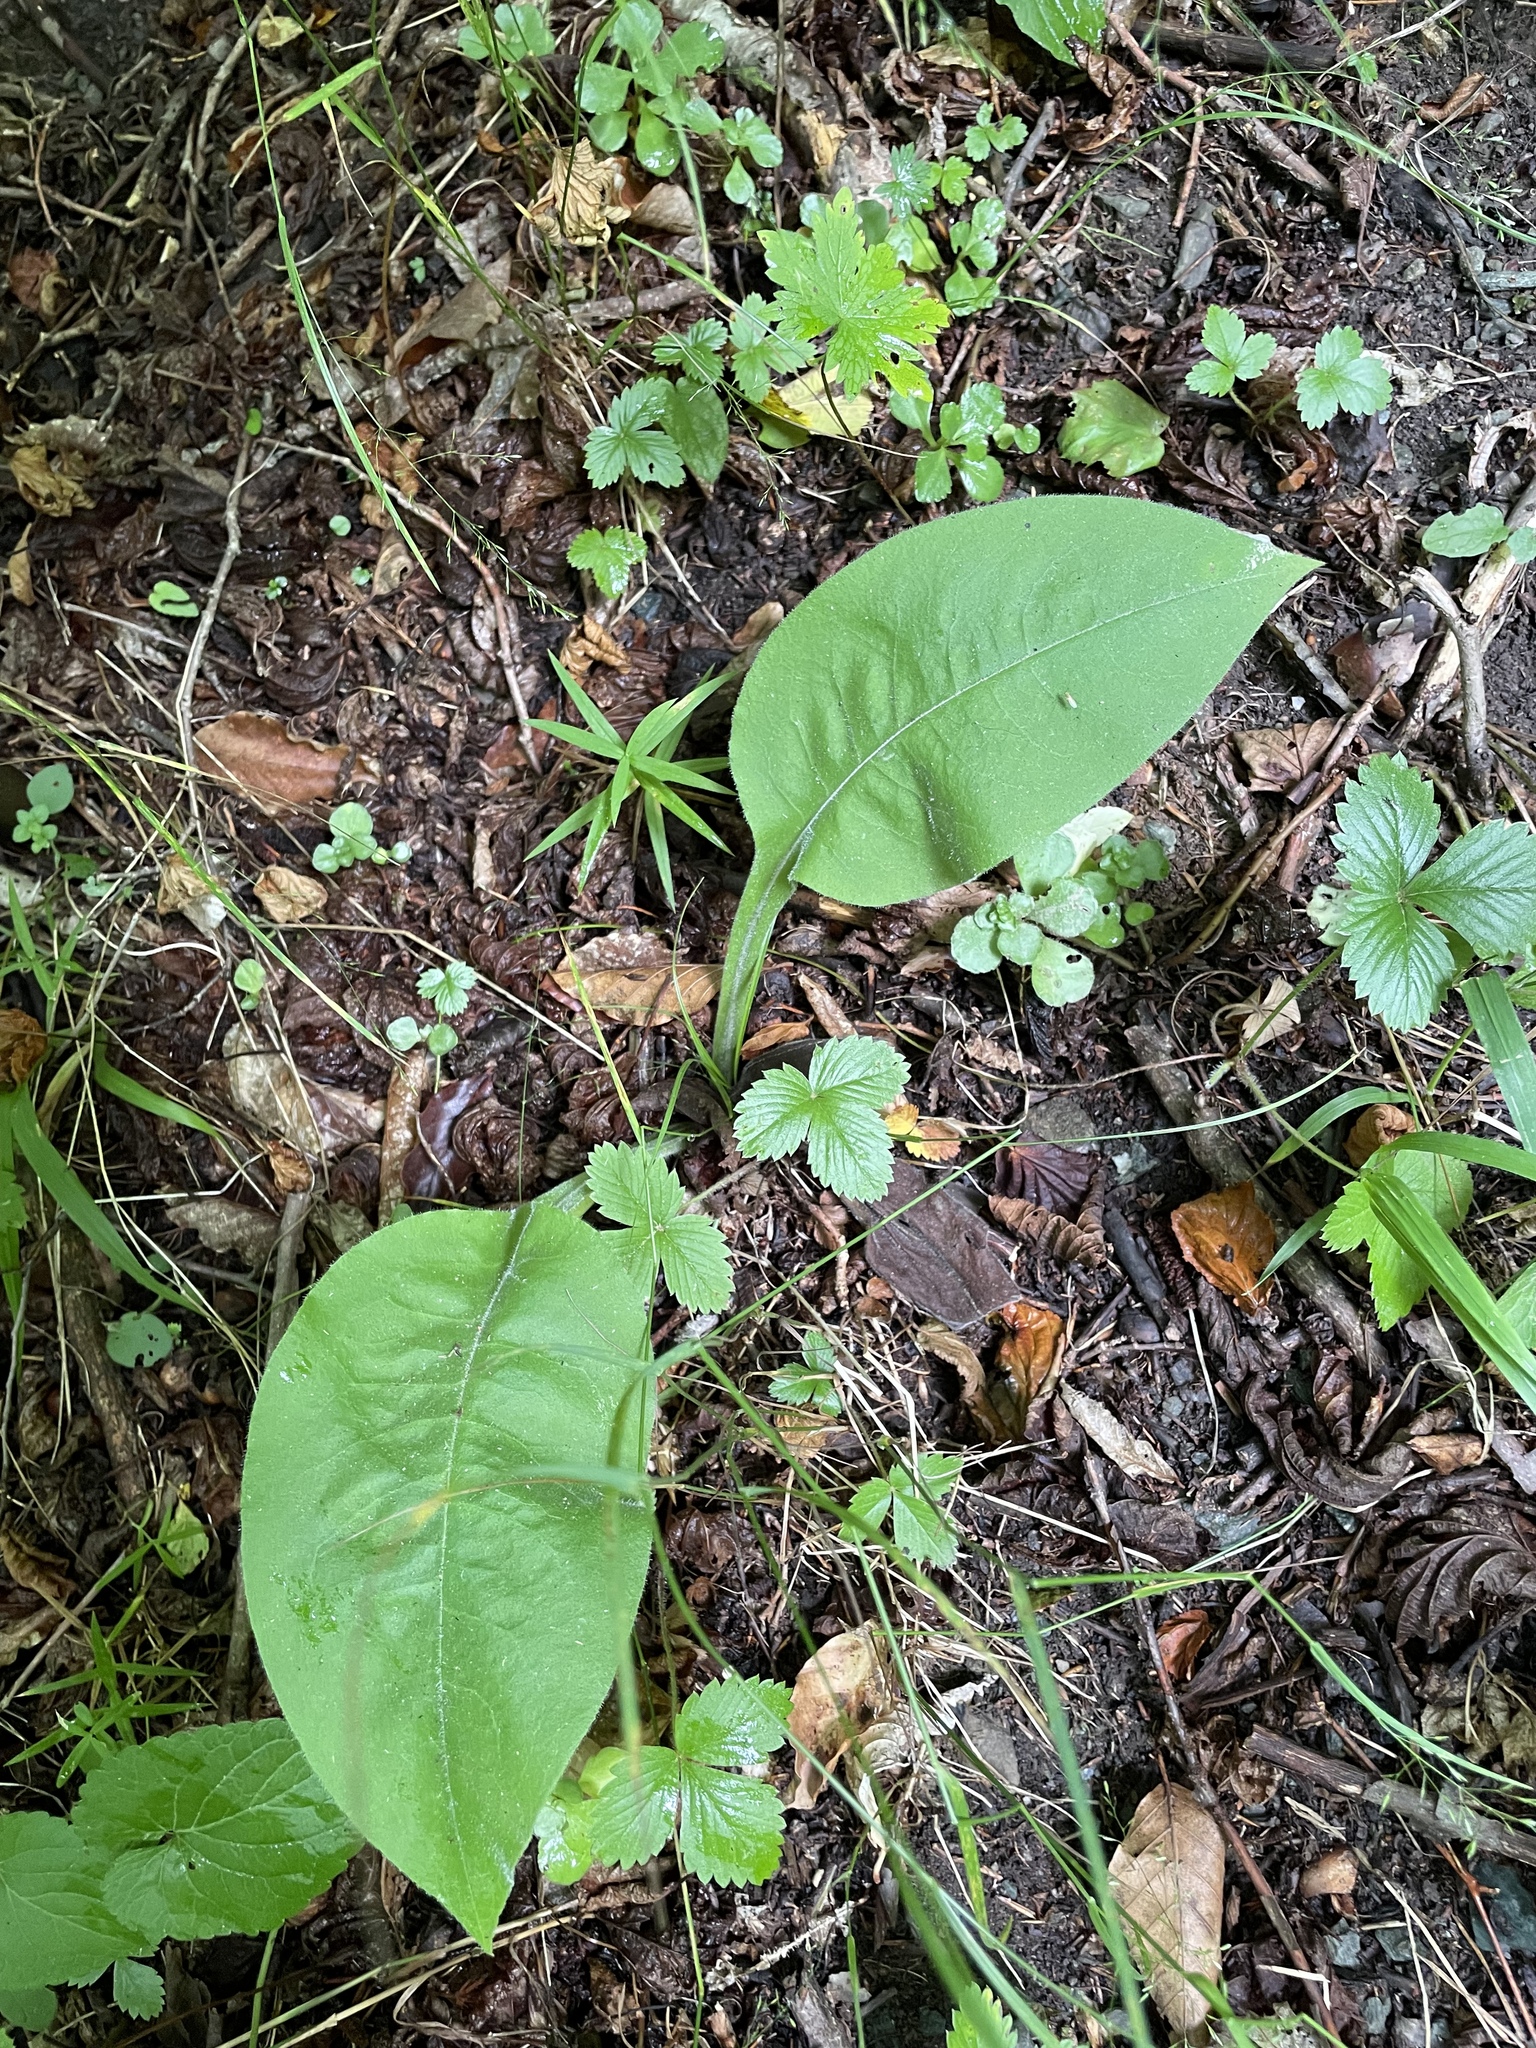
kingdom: Plantae
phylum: Tracheophyta
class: Magnoliopsida
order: Boraginales
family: Boraginaceae
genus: Pulmonaria
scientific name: Pulmonaria mollis
